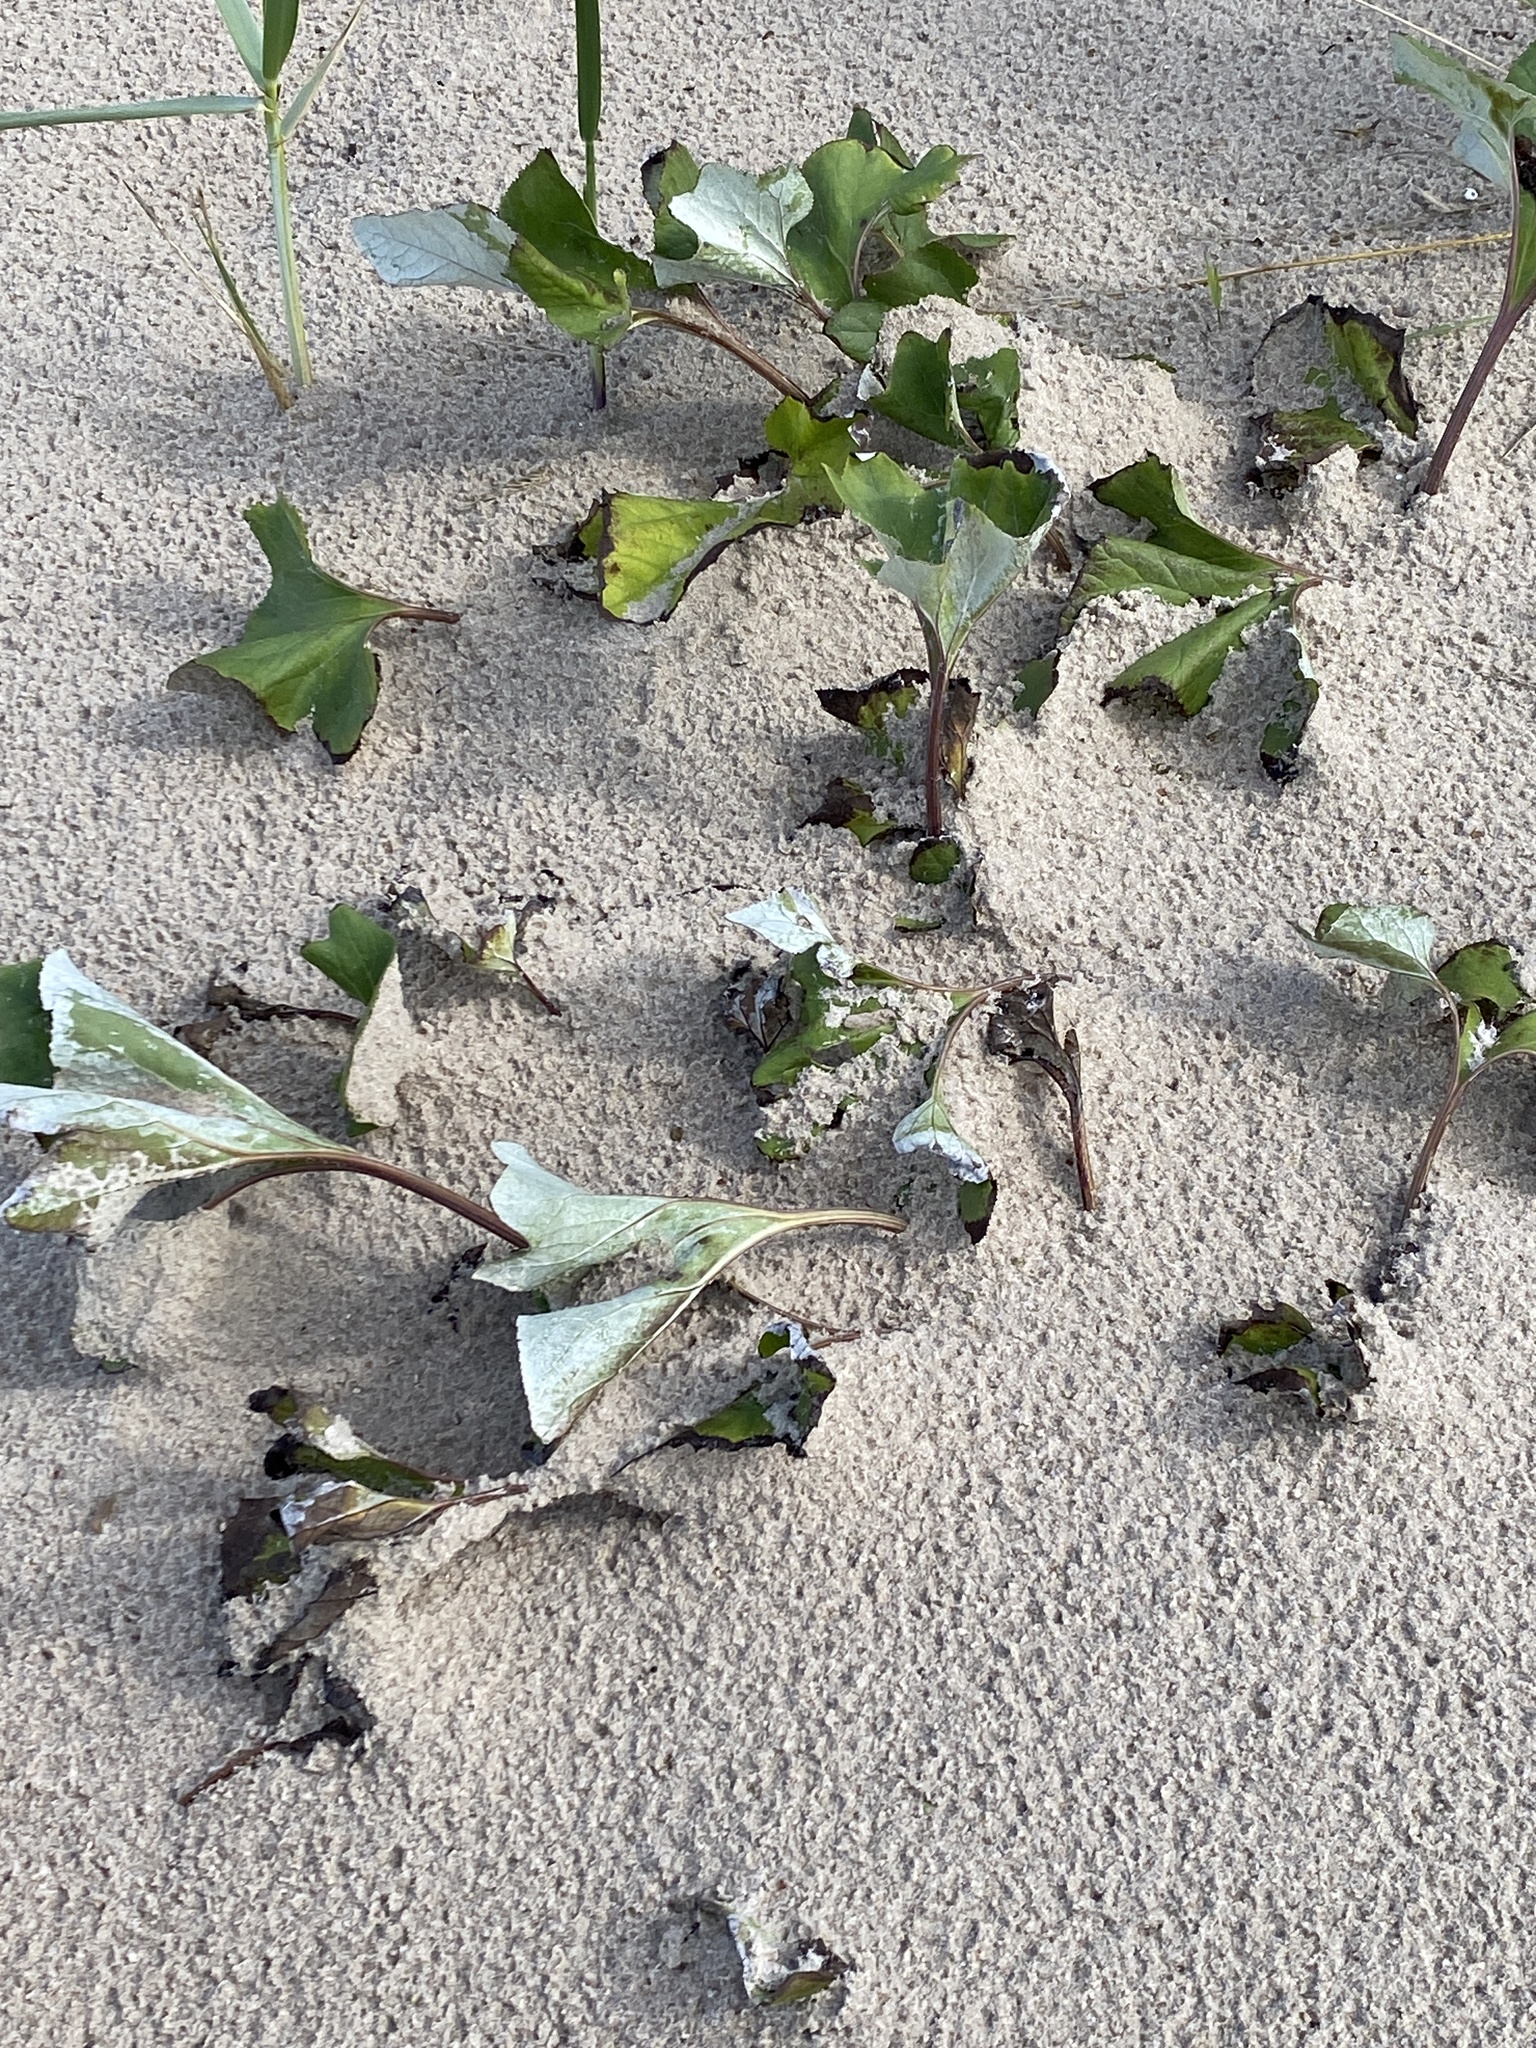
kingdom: Plantae
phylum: Tracheophyta
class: Magnoliopsida
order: Asterales
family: Asteraceae
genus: Petasites
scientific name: Petasites spurius
